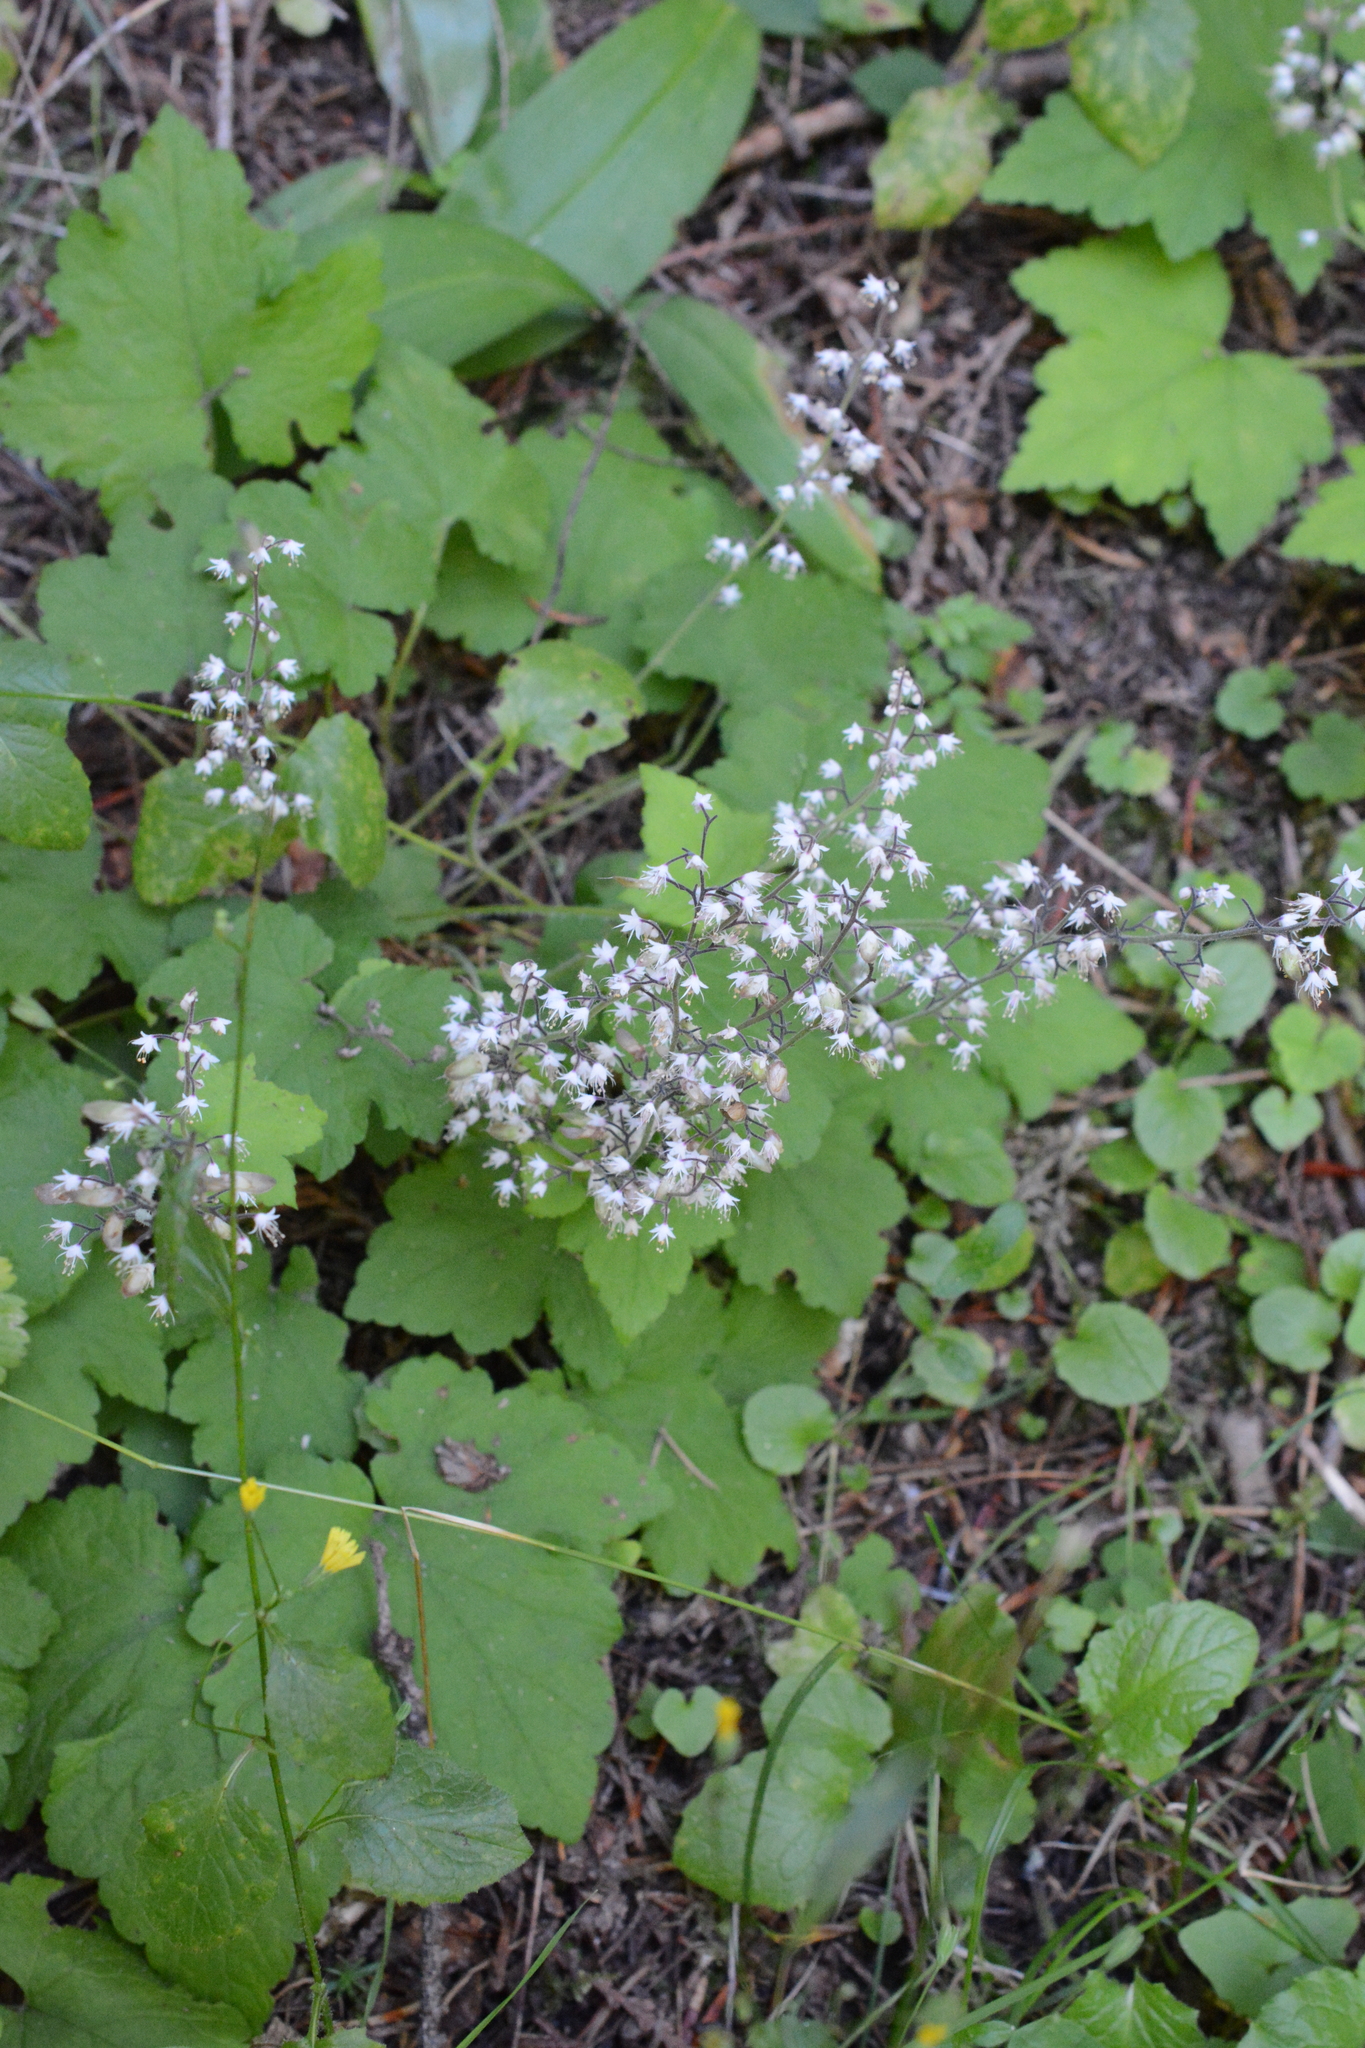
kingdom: Plantae
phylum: Tracheophyta
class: Magnoliopsida
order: Saxifragales
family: Saxifragaceae
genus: Tiarella
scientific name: Tiarella trifoliata
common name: Sugar-scoop
